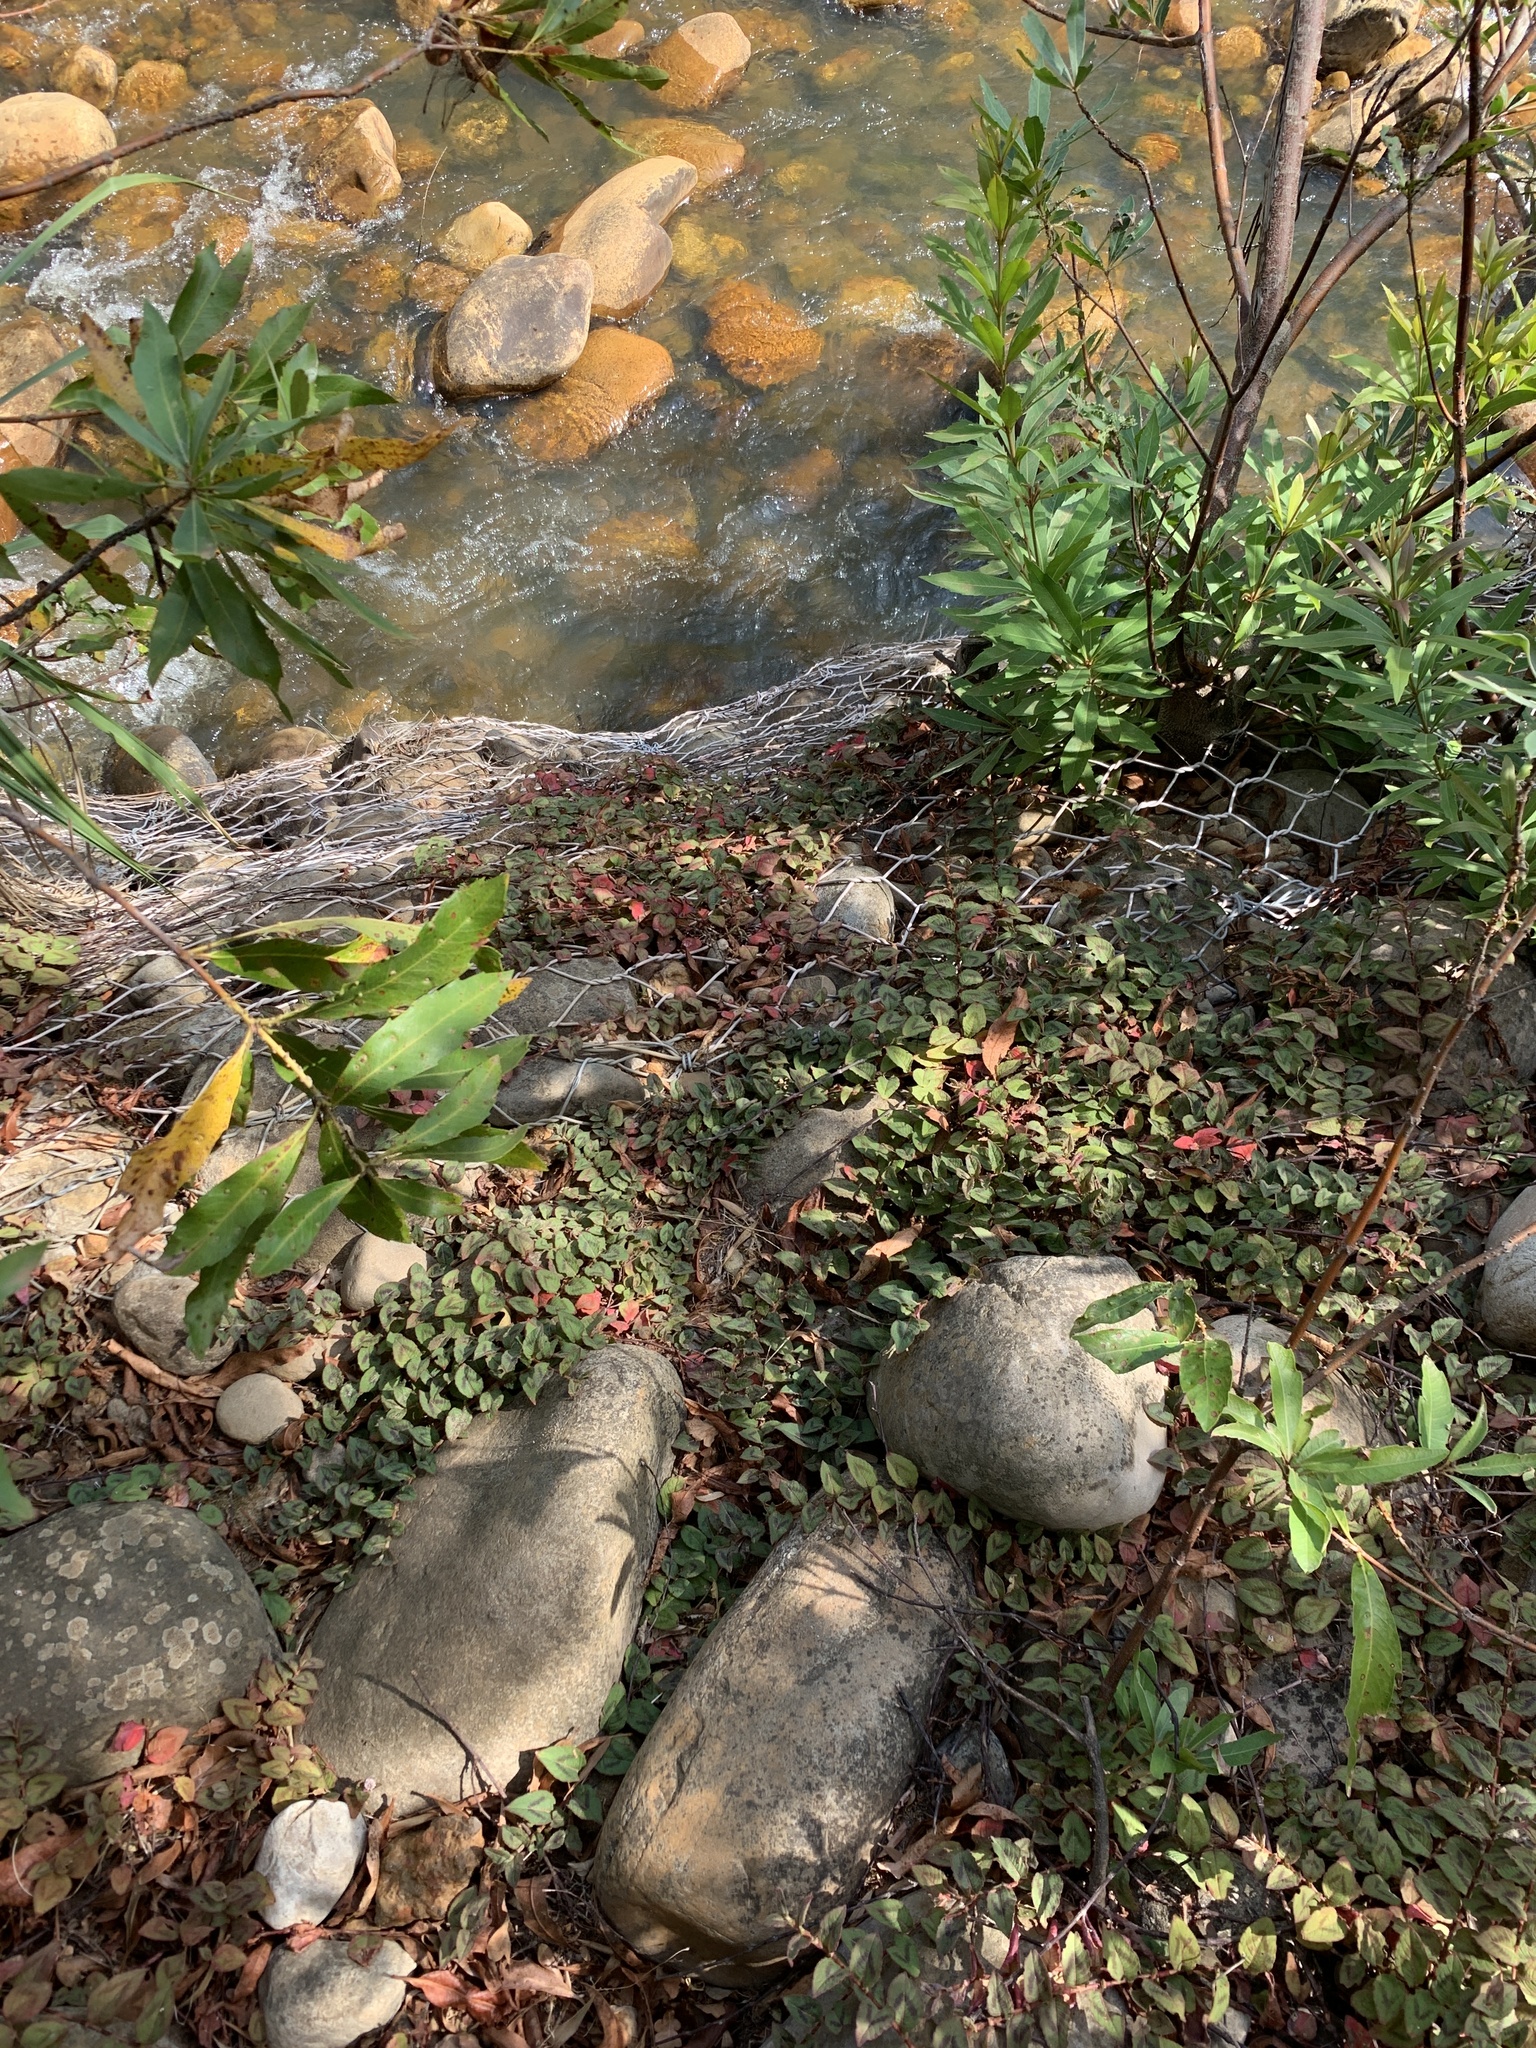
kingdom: Plantae
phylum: Tracheophyta
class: Magnoliopsida
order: Caryophyllales
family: Polygonaceae
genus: Persicaria
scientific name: Persicaria capitata
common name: Pinkhead smartweed
